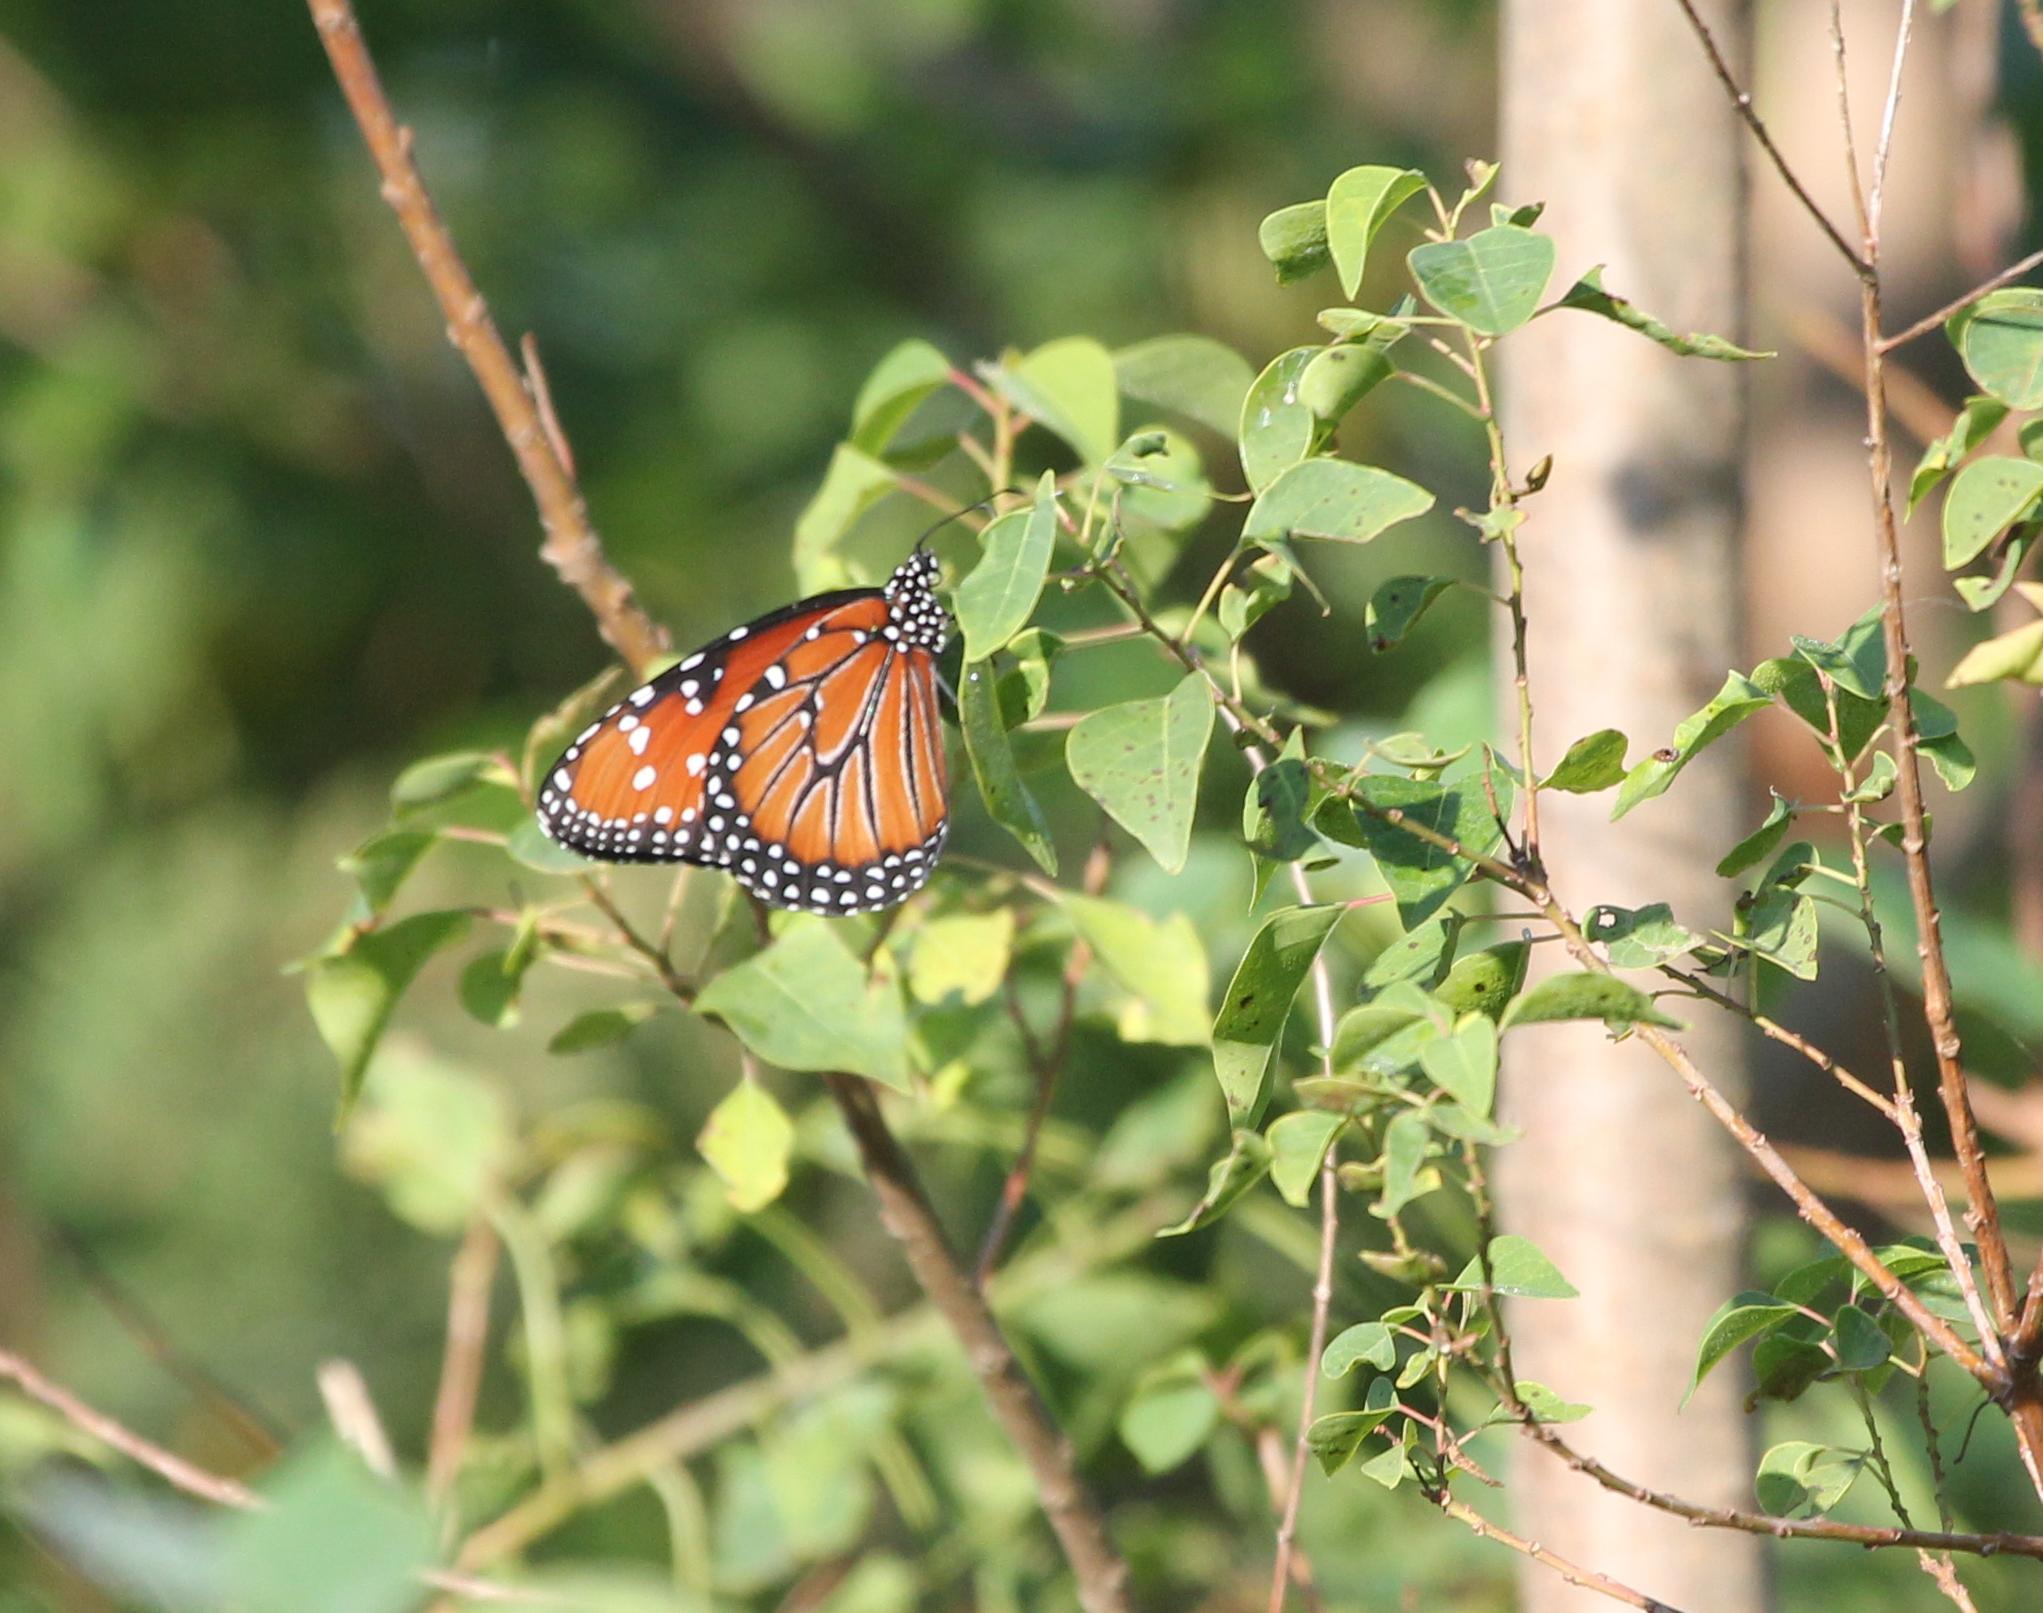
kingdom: Animalia
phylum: Arthropoda
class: Insecta
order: Lepidoptera
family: Nymphalidae
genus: Danaus
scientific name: Danaus gilippus
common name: Queen
